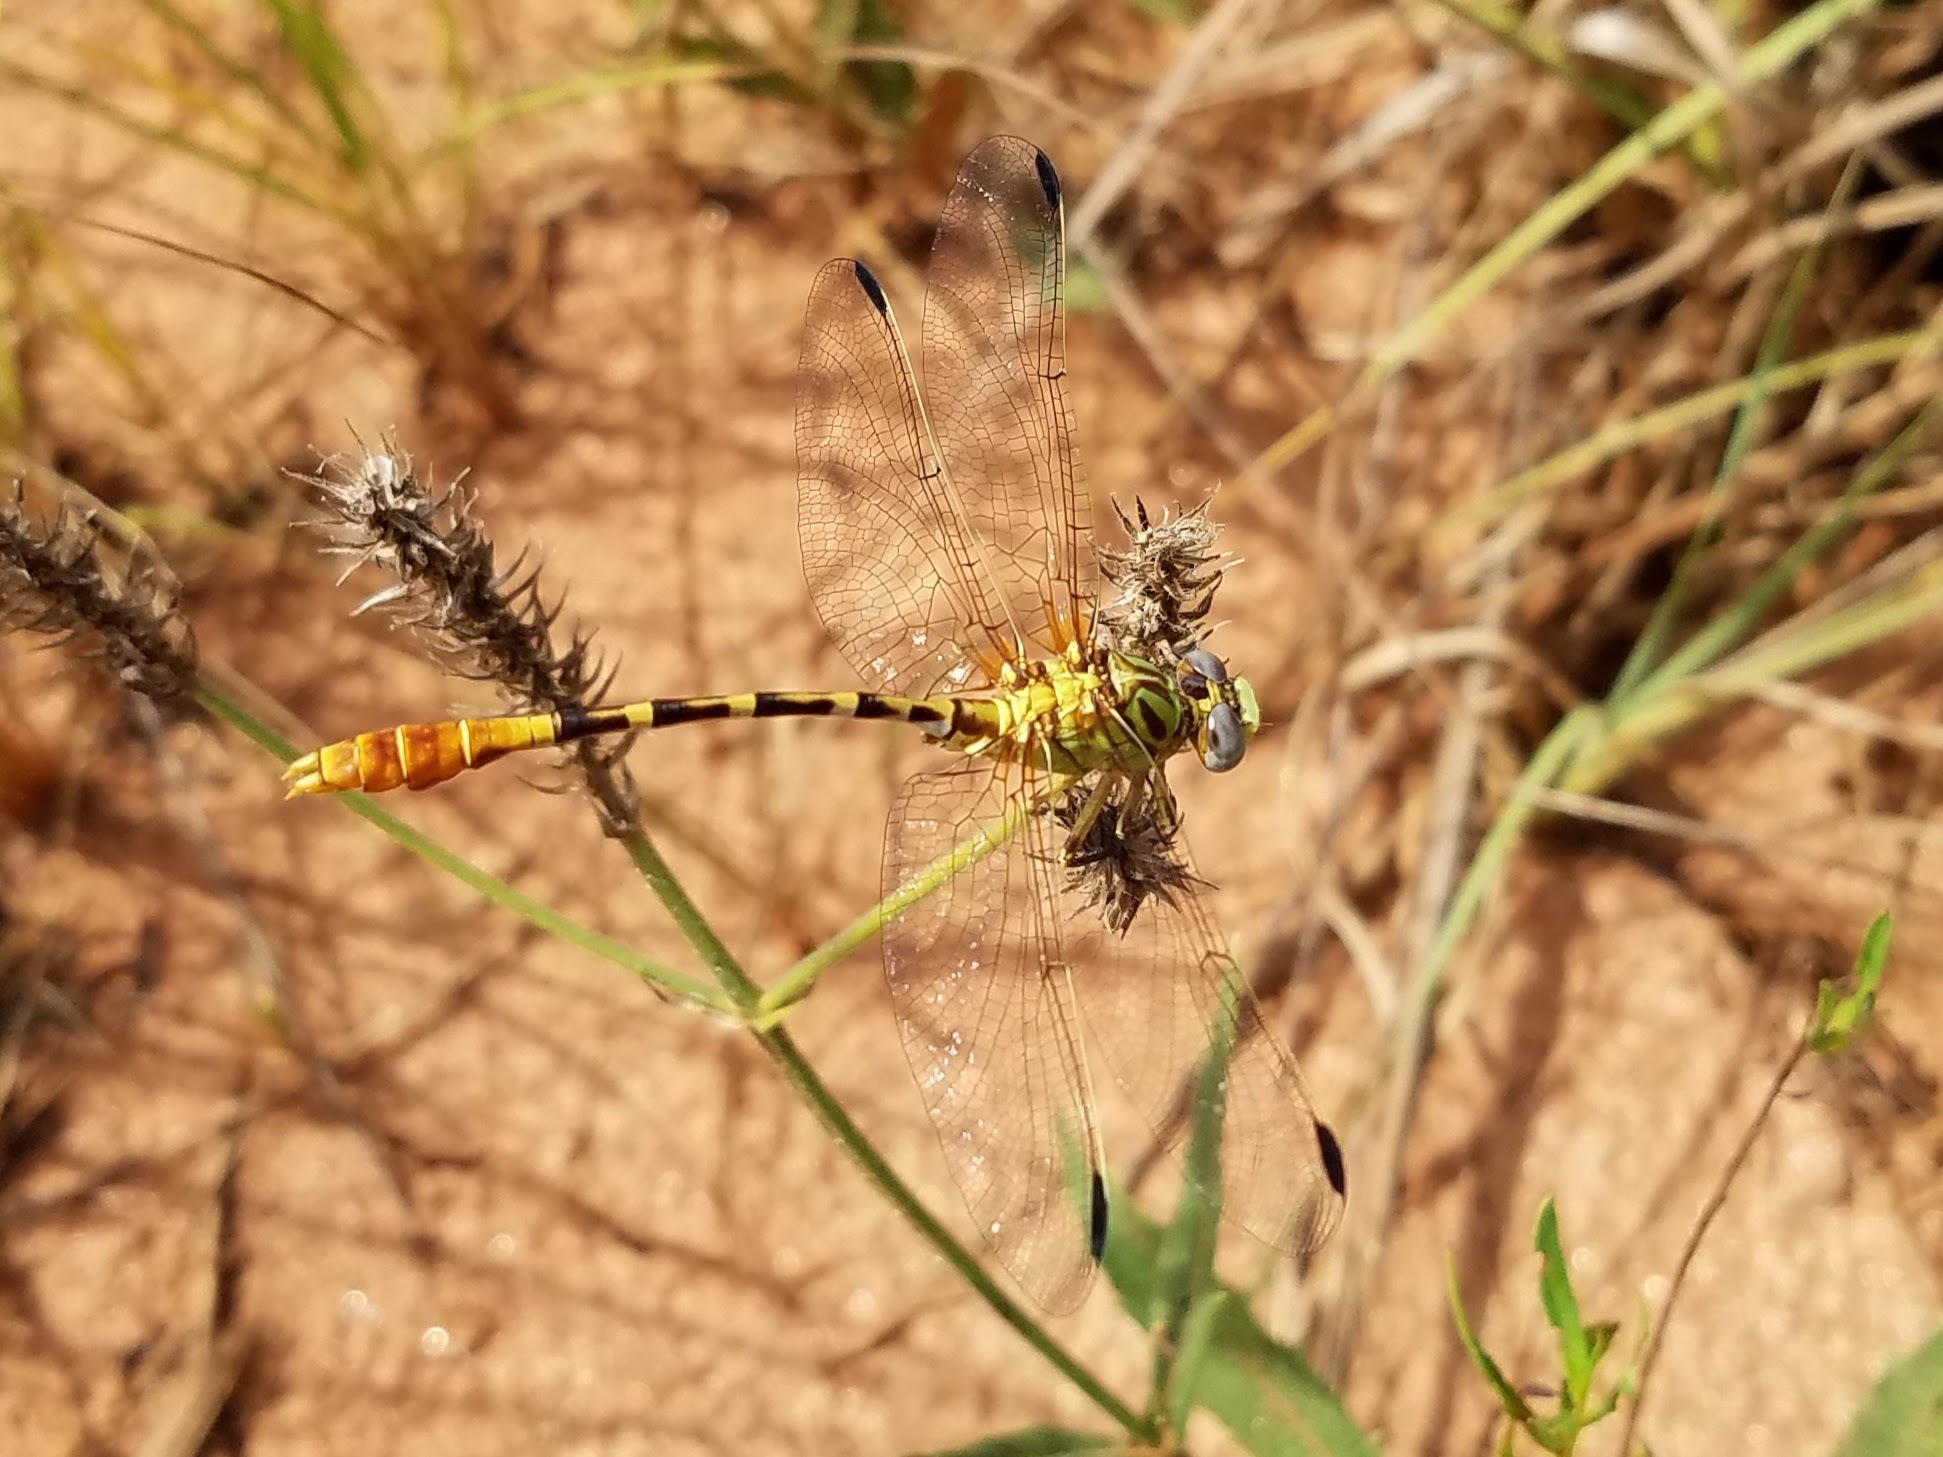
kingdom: Animalia
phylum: Arthropoda
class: Insecta
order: Odonata
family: Gomphidae
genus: Erpetogomphus
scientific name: Erpetogomphus designatus
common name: Eastern ringtail
